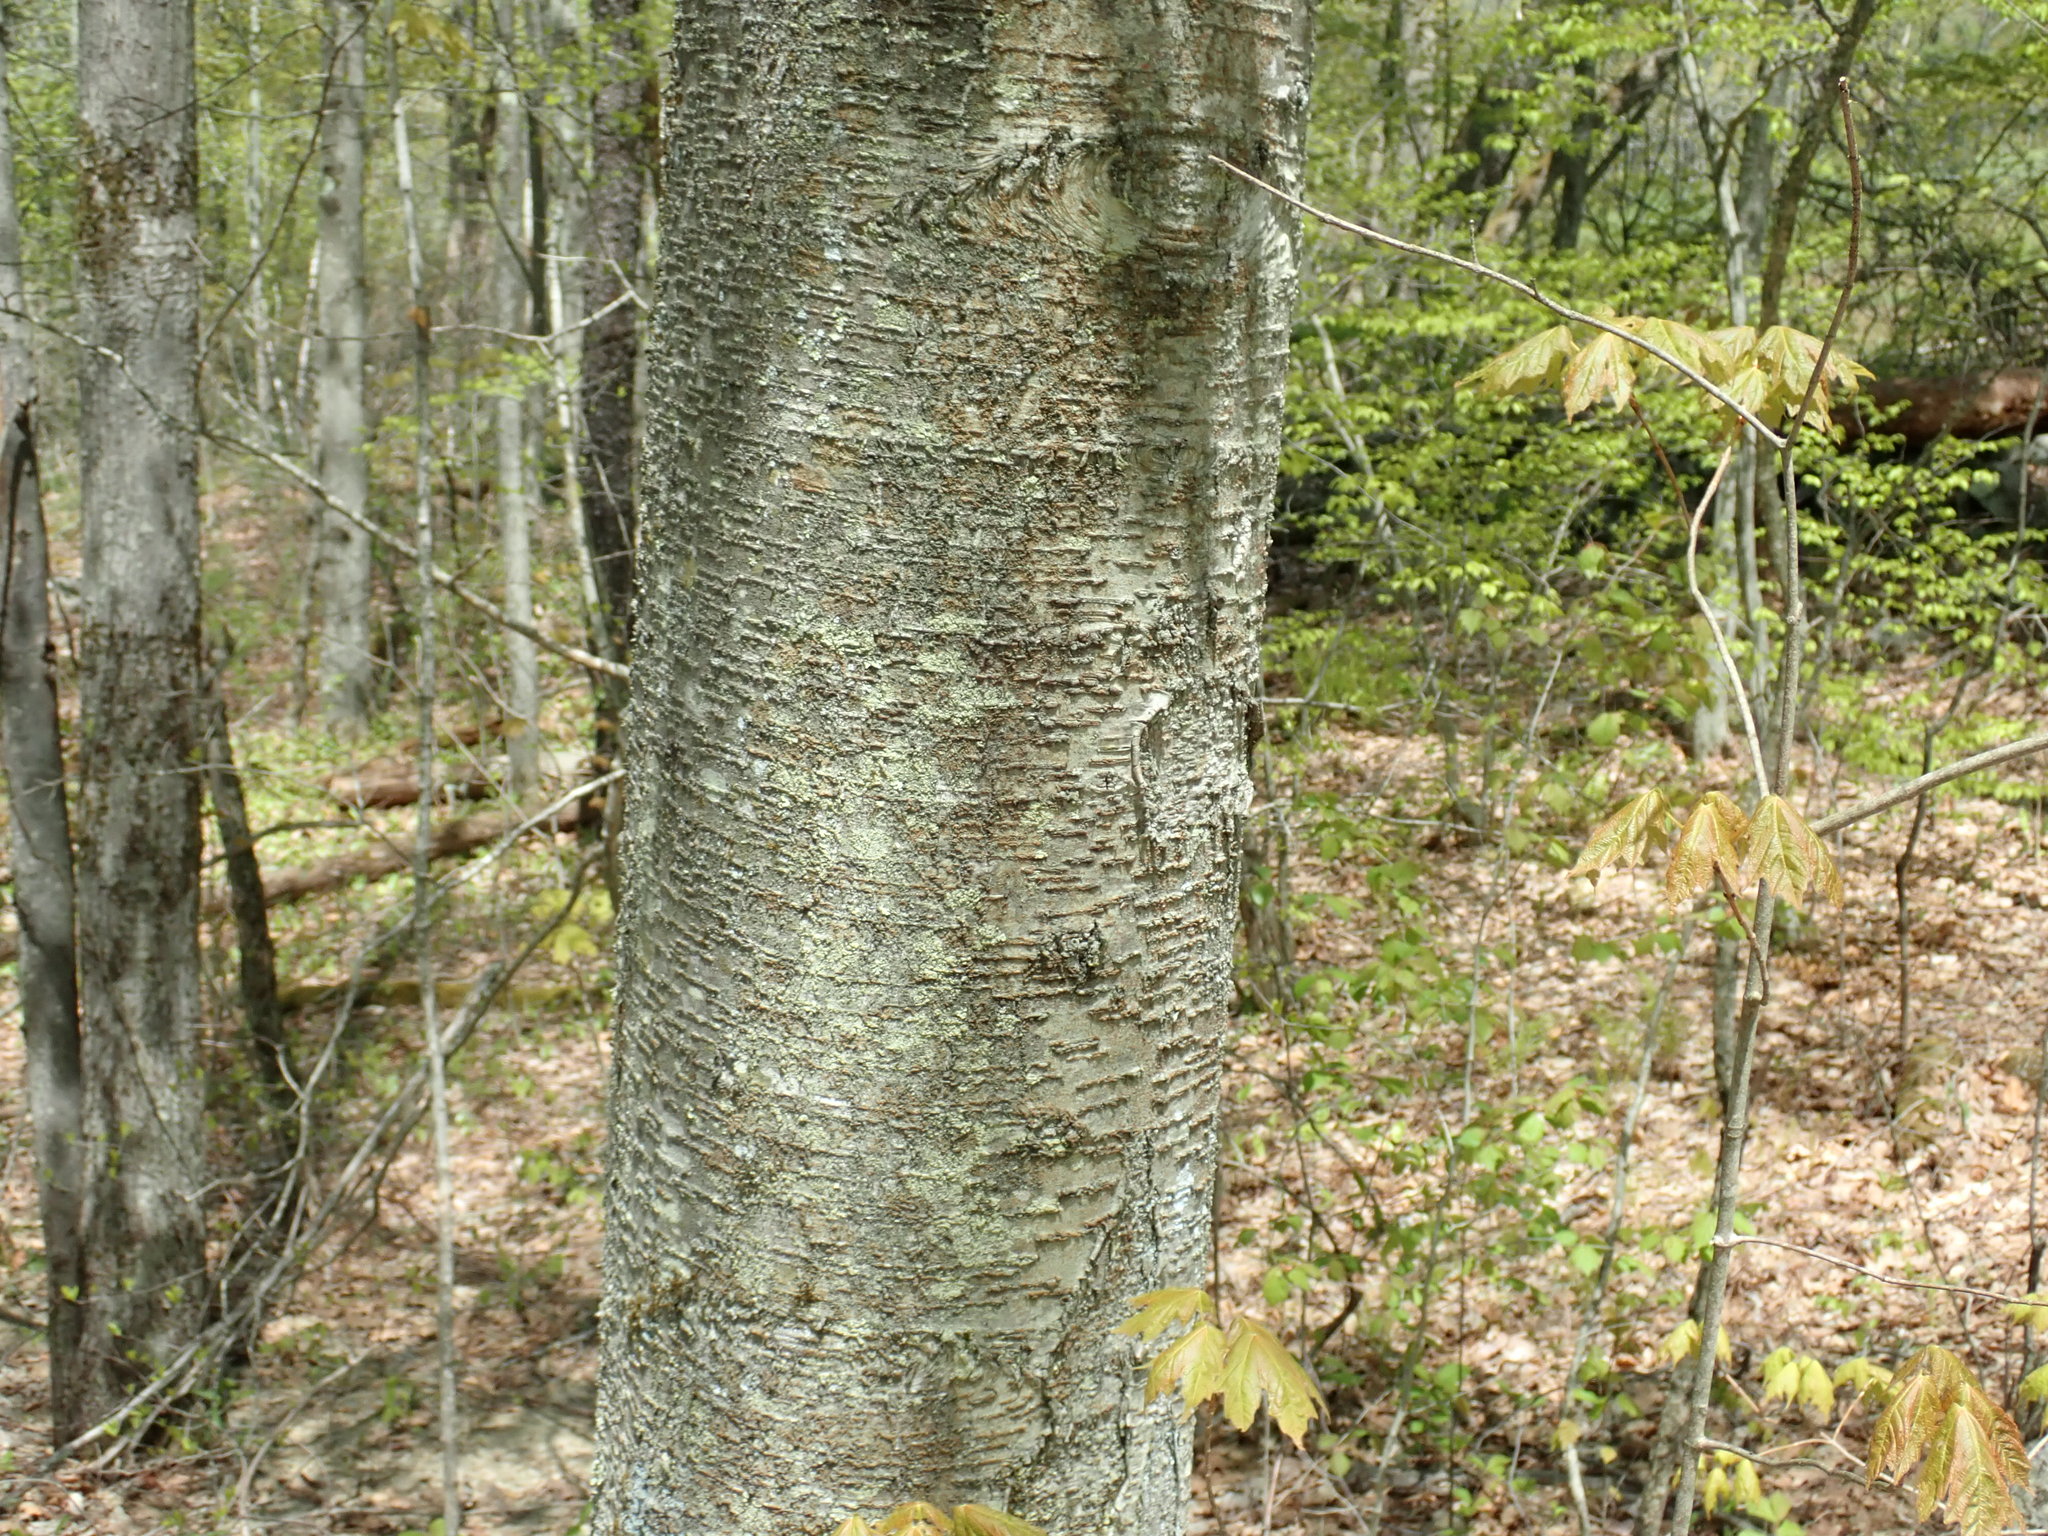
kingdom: Plantae
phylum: Tracheophyta
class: Magnoliopsida
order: Fagales
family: Betulaceae
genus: Betula
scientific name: Betula lenta
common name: Black birch
